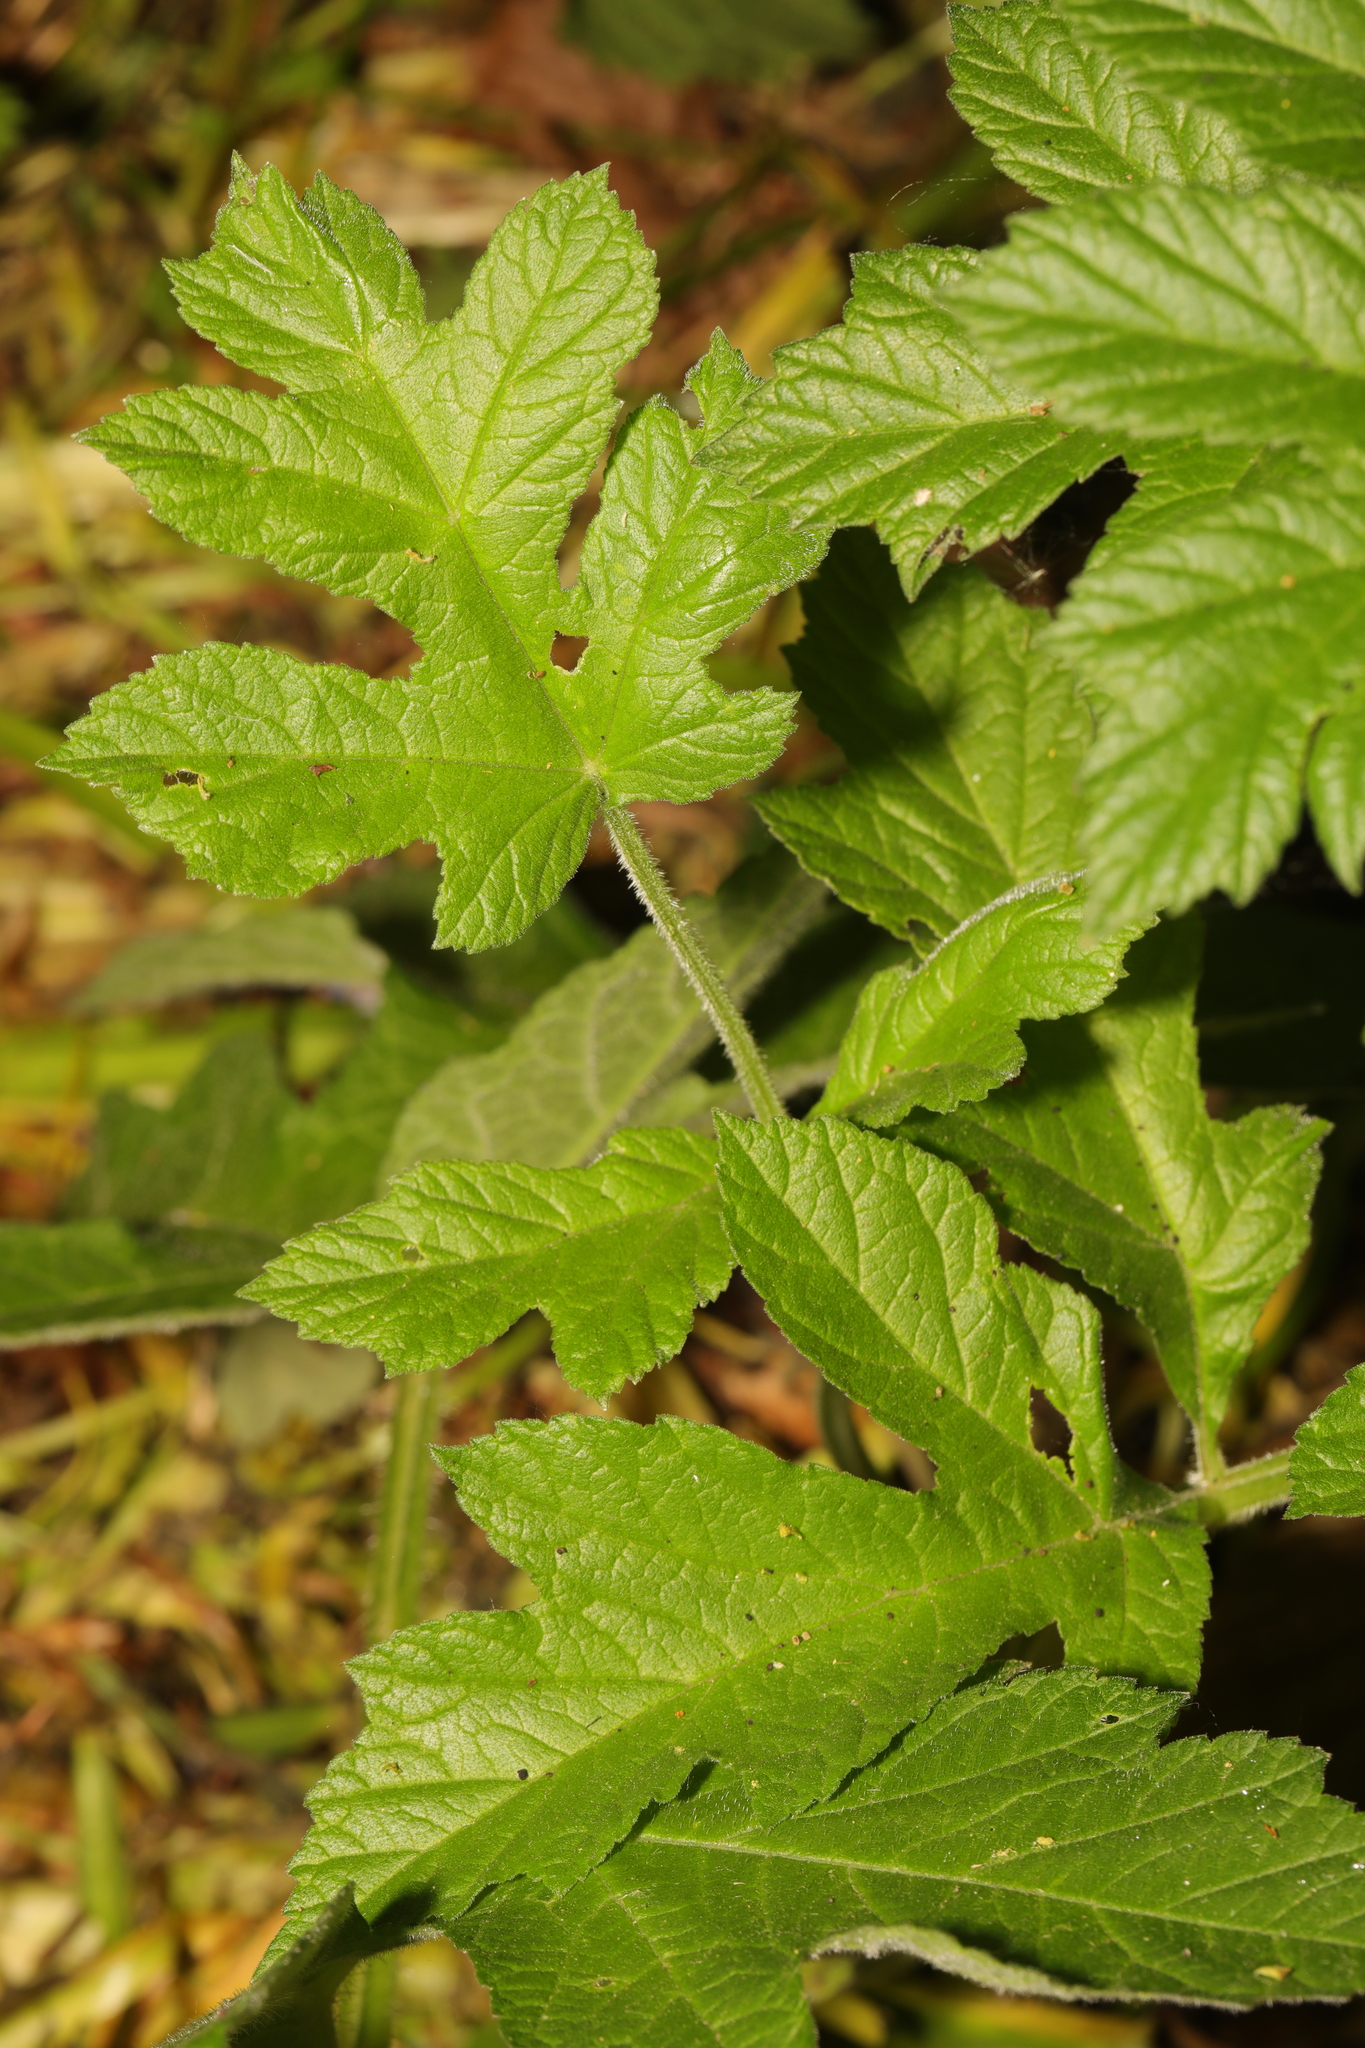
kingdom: Plantae
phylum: Tracheophyta
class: Magnoliopsida
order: Apiales
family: Apiaceae
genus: Heracleum
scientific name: Heracleum sphondylium
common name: Hogweed
